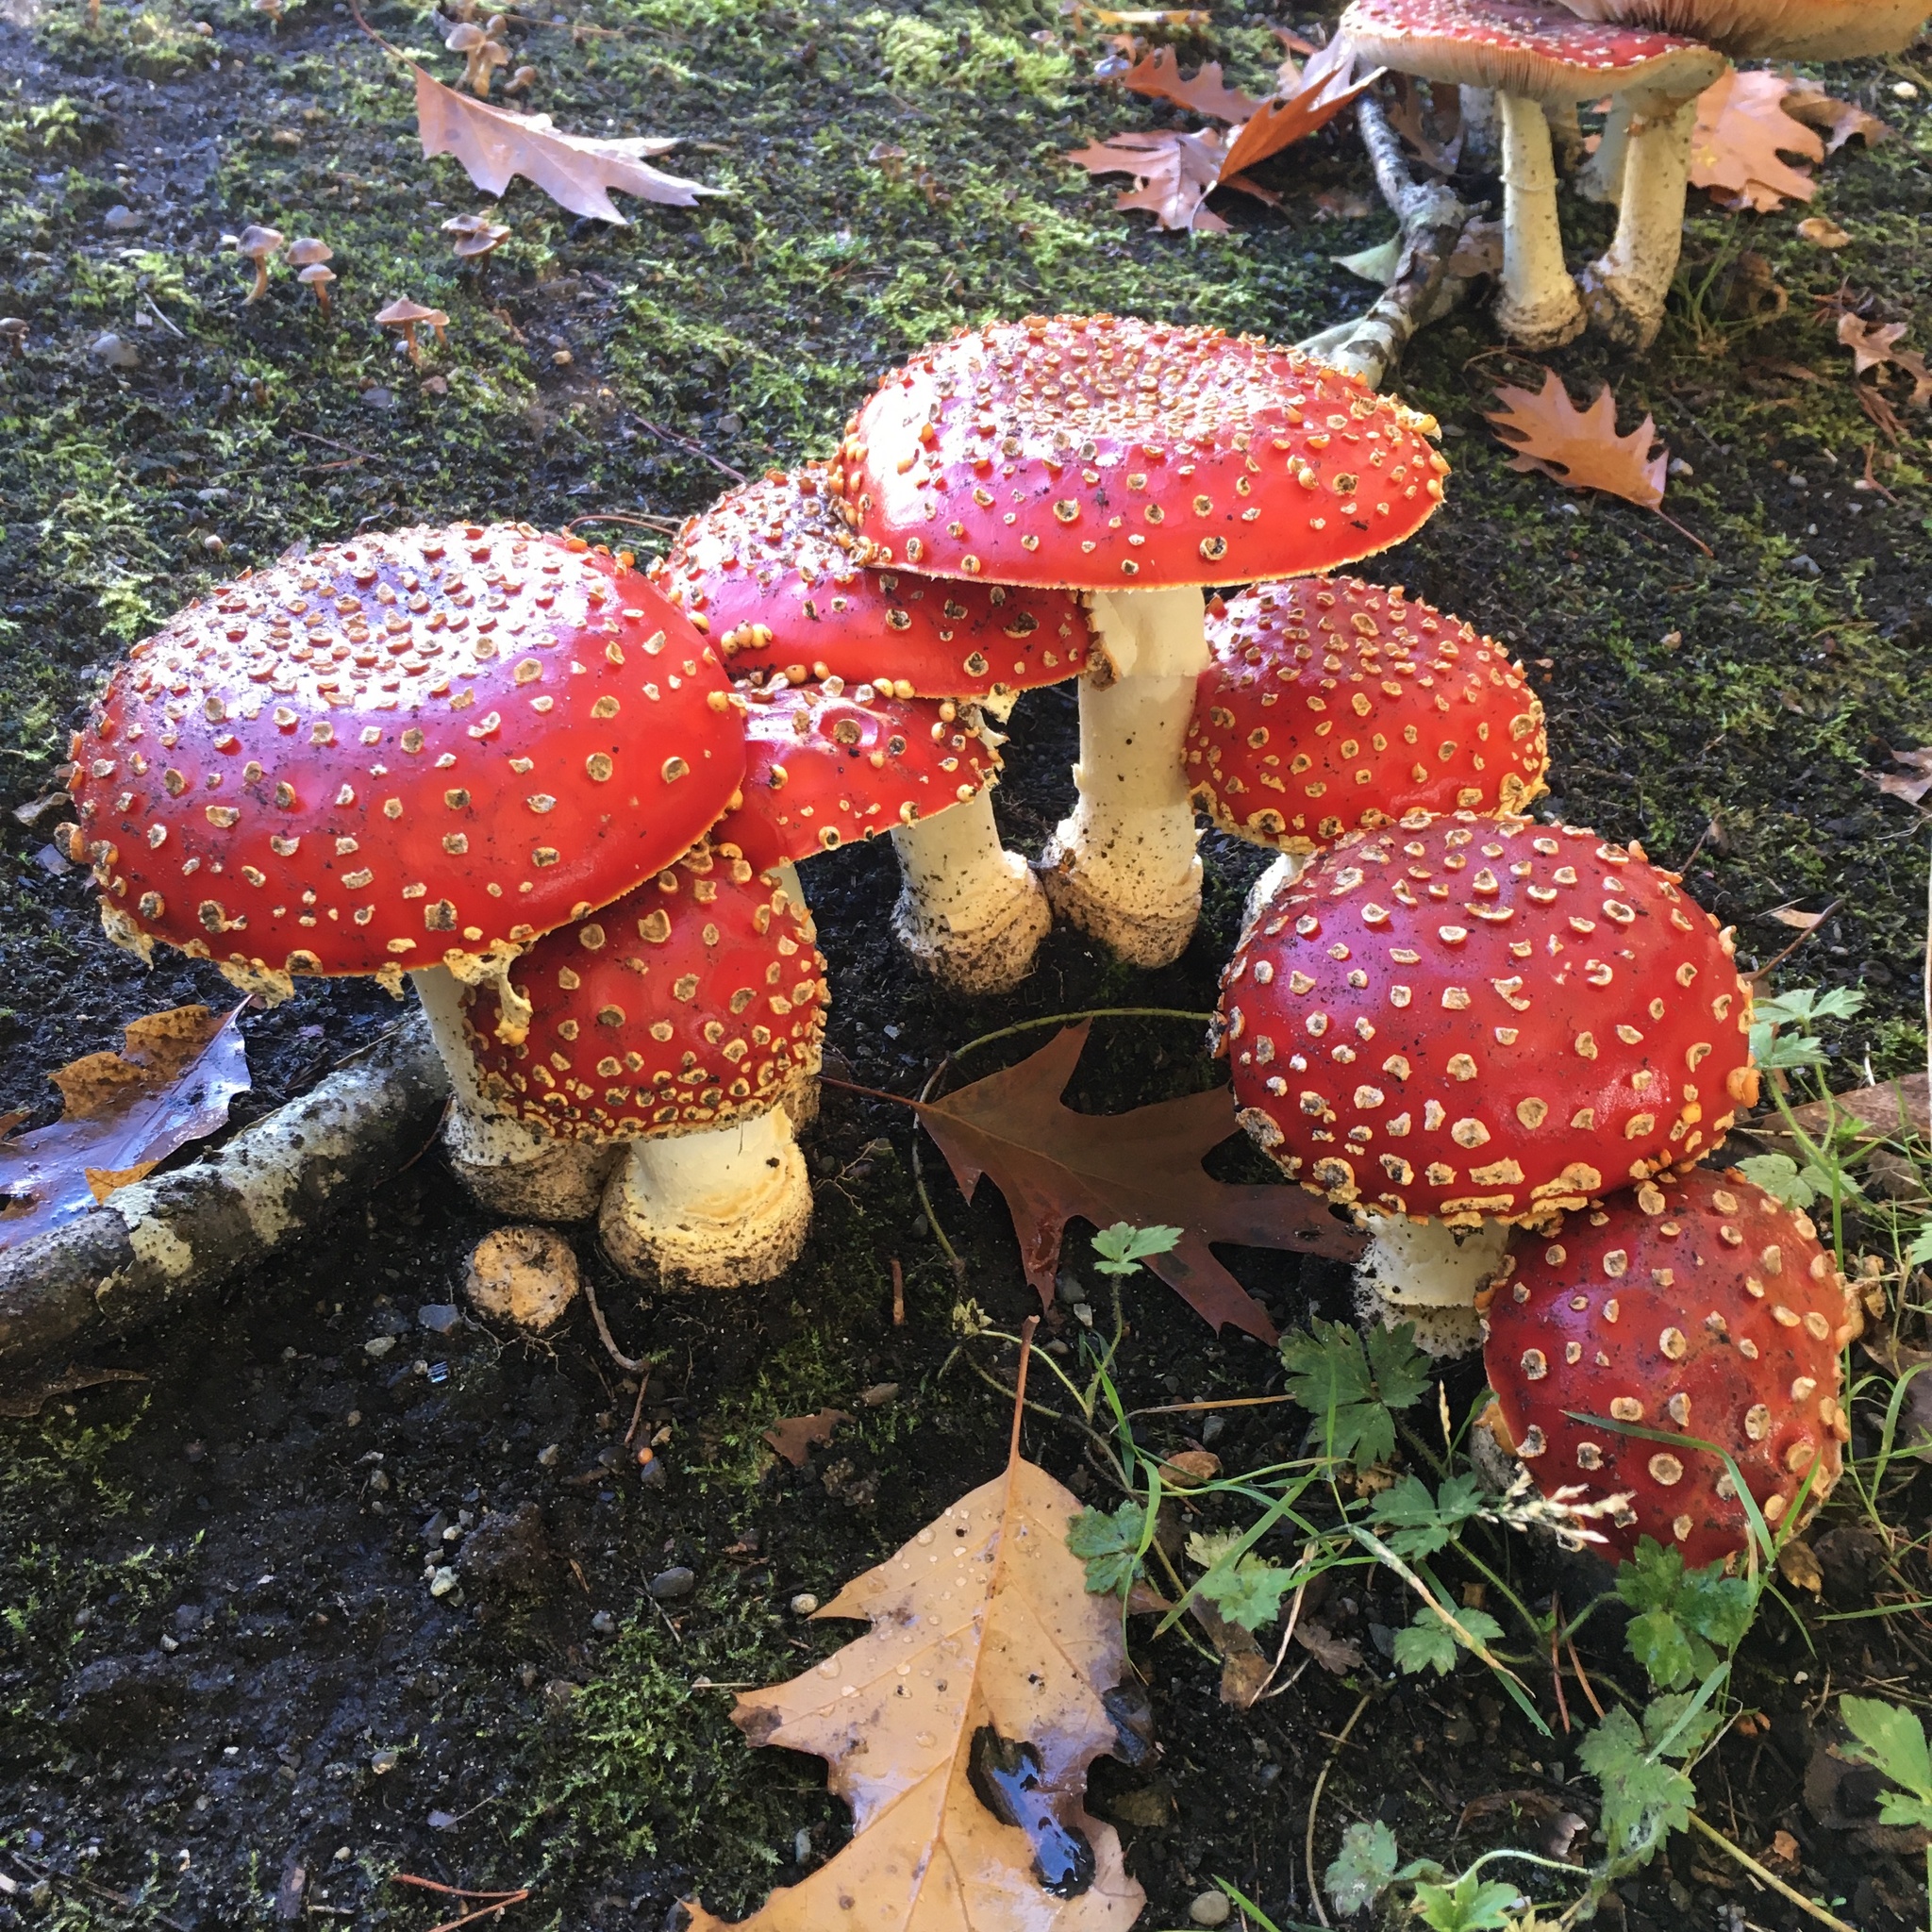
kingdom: Fungi
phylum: Basidiomycota
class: Agaricomycetes
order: Agaricales
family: Amanitaceae
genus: Amanita
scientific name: Amanita muscaria
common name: Fly agaric
